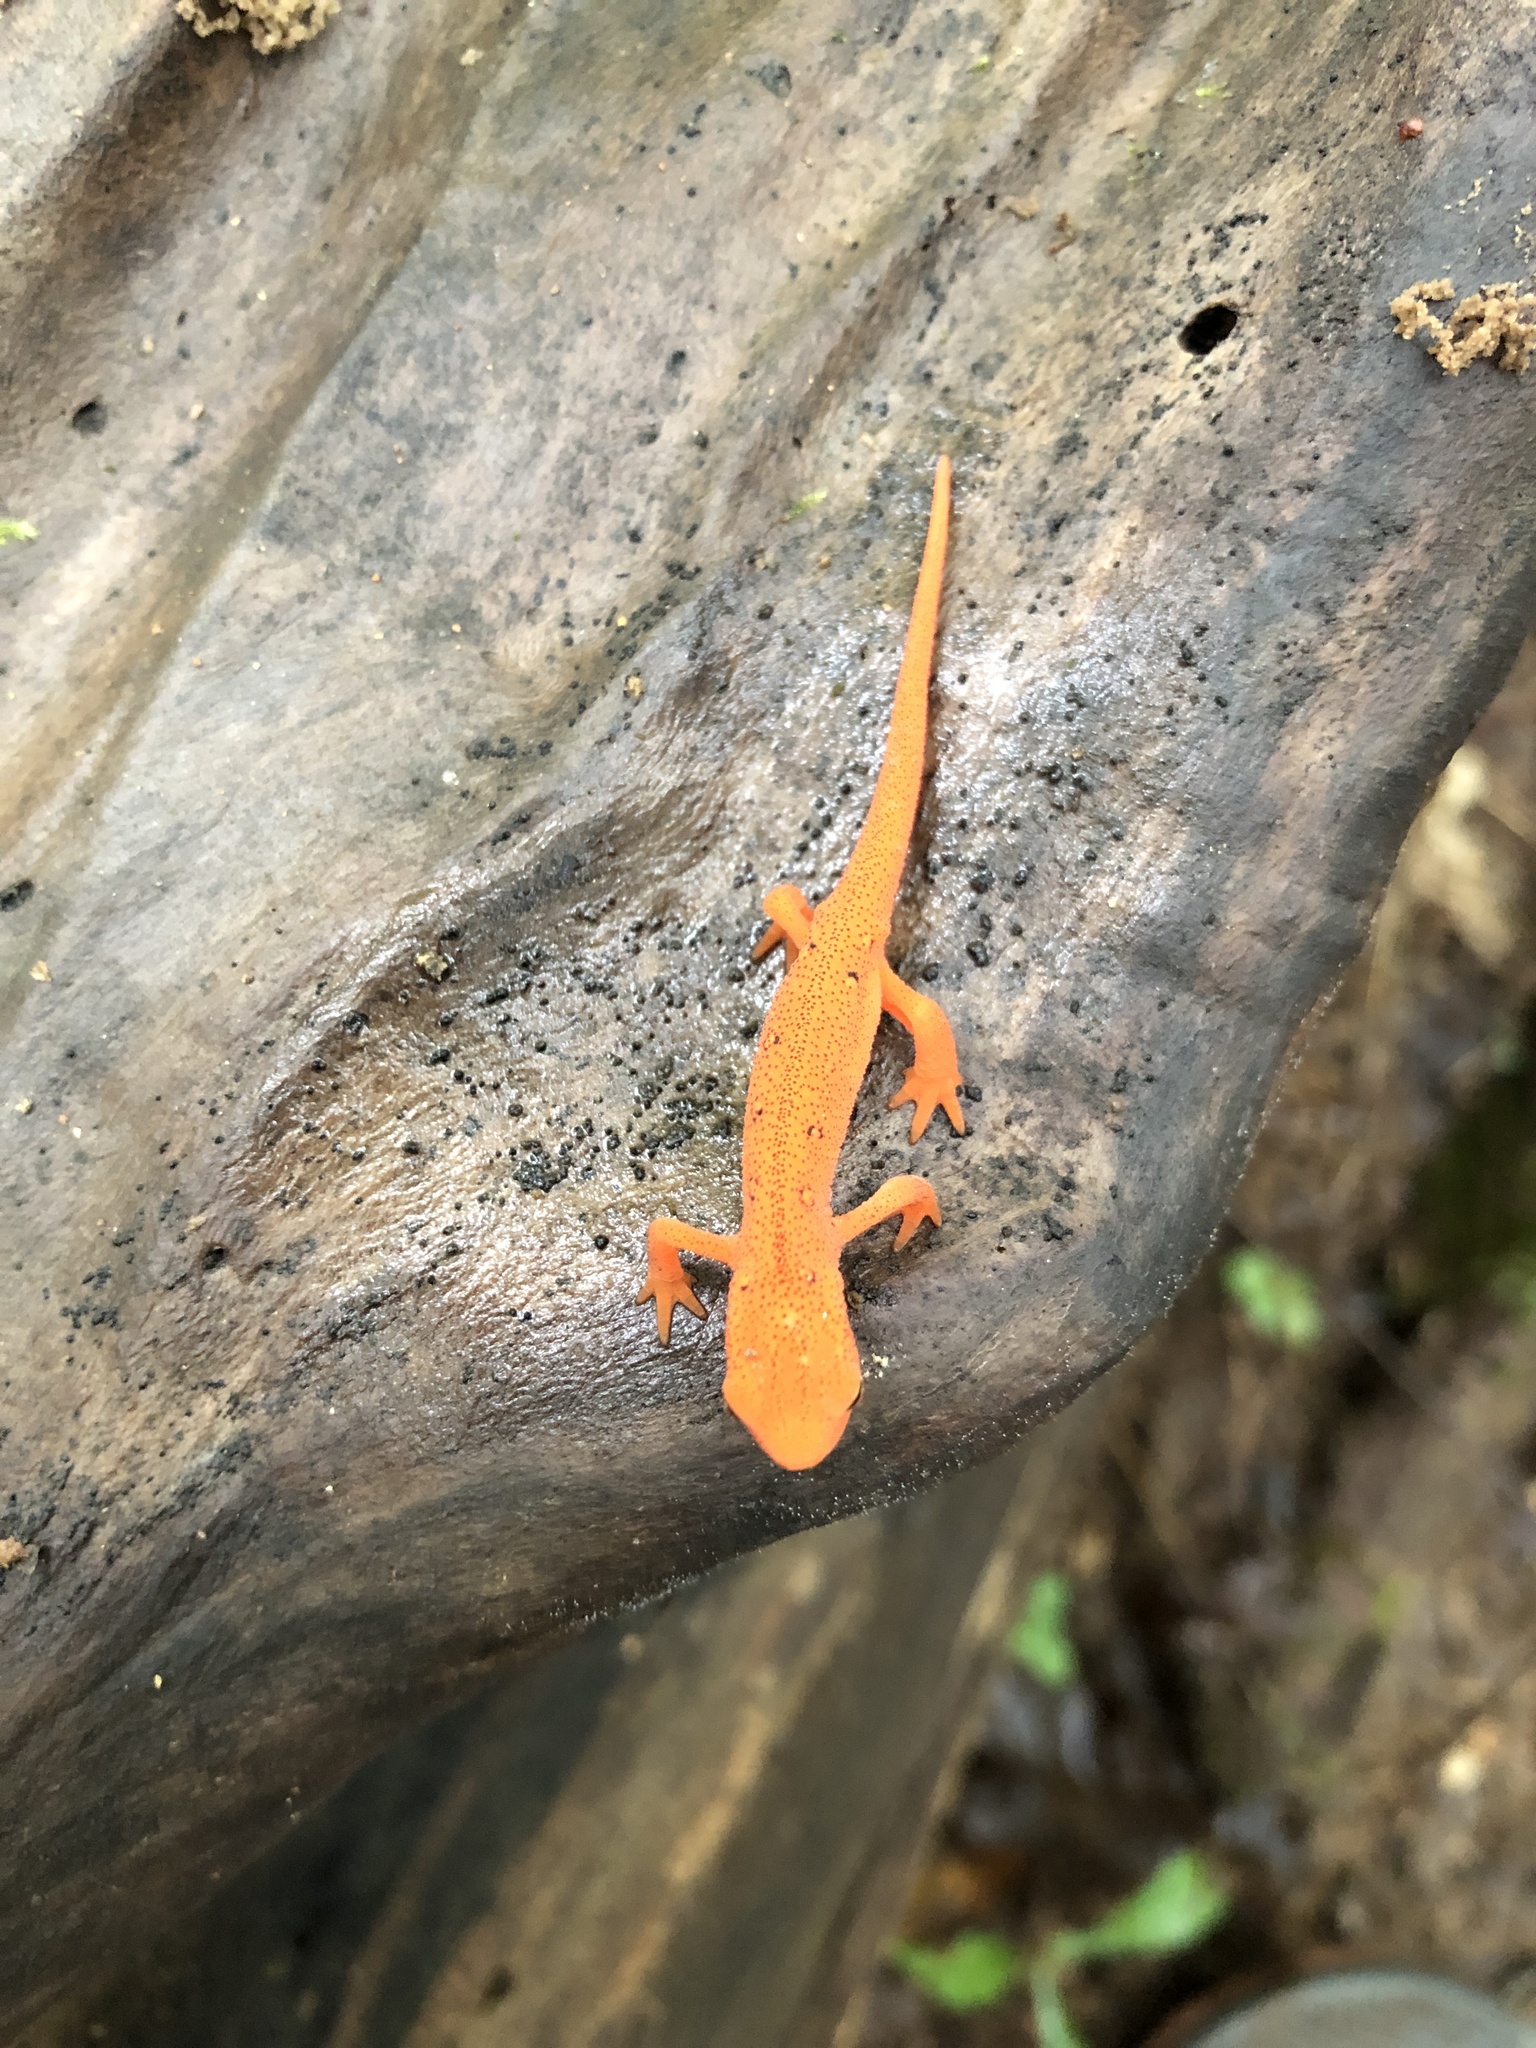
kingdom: Animalia
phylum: Chordata
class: Amphibia
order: Caudata
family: Salamandridae
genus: Notophthalmus
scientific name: Notophthalmus viridescens
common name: Eastern newt
